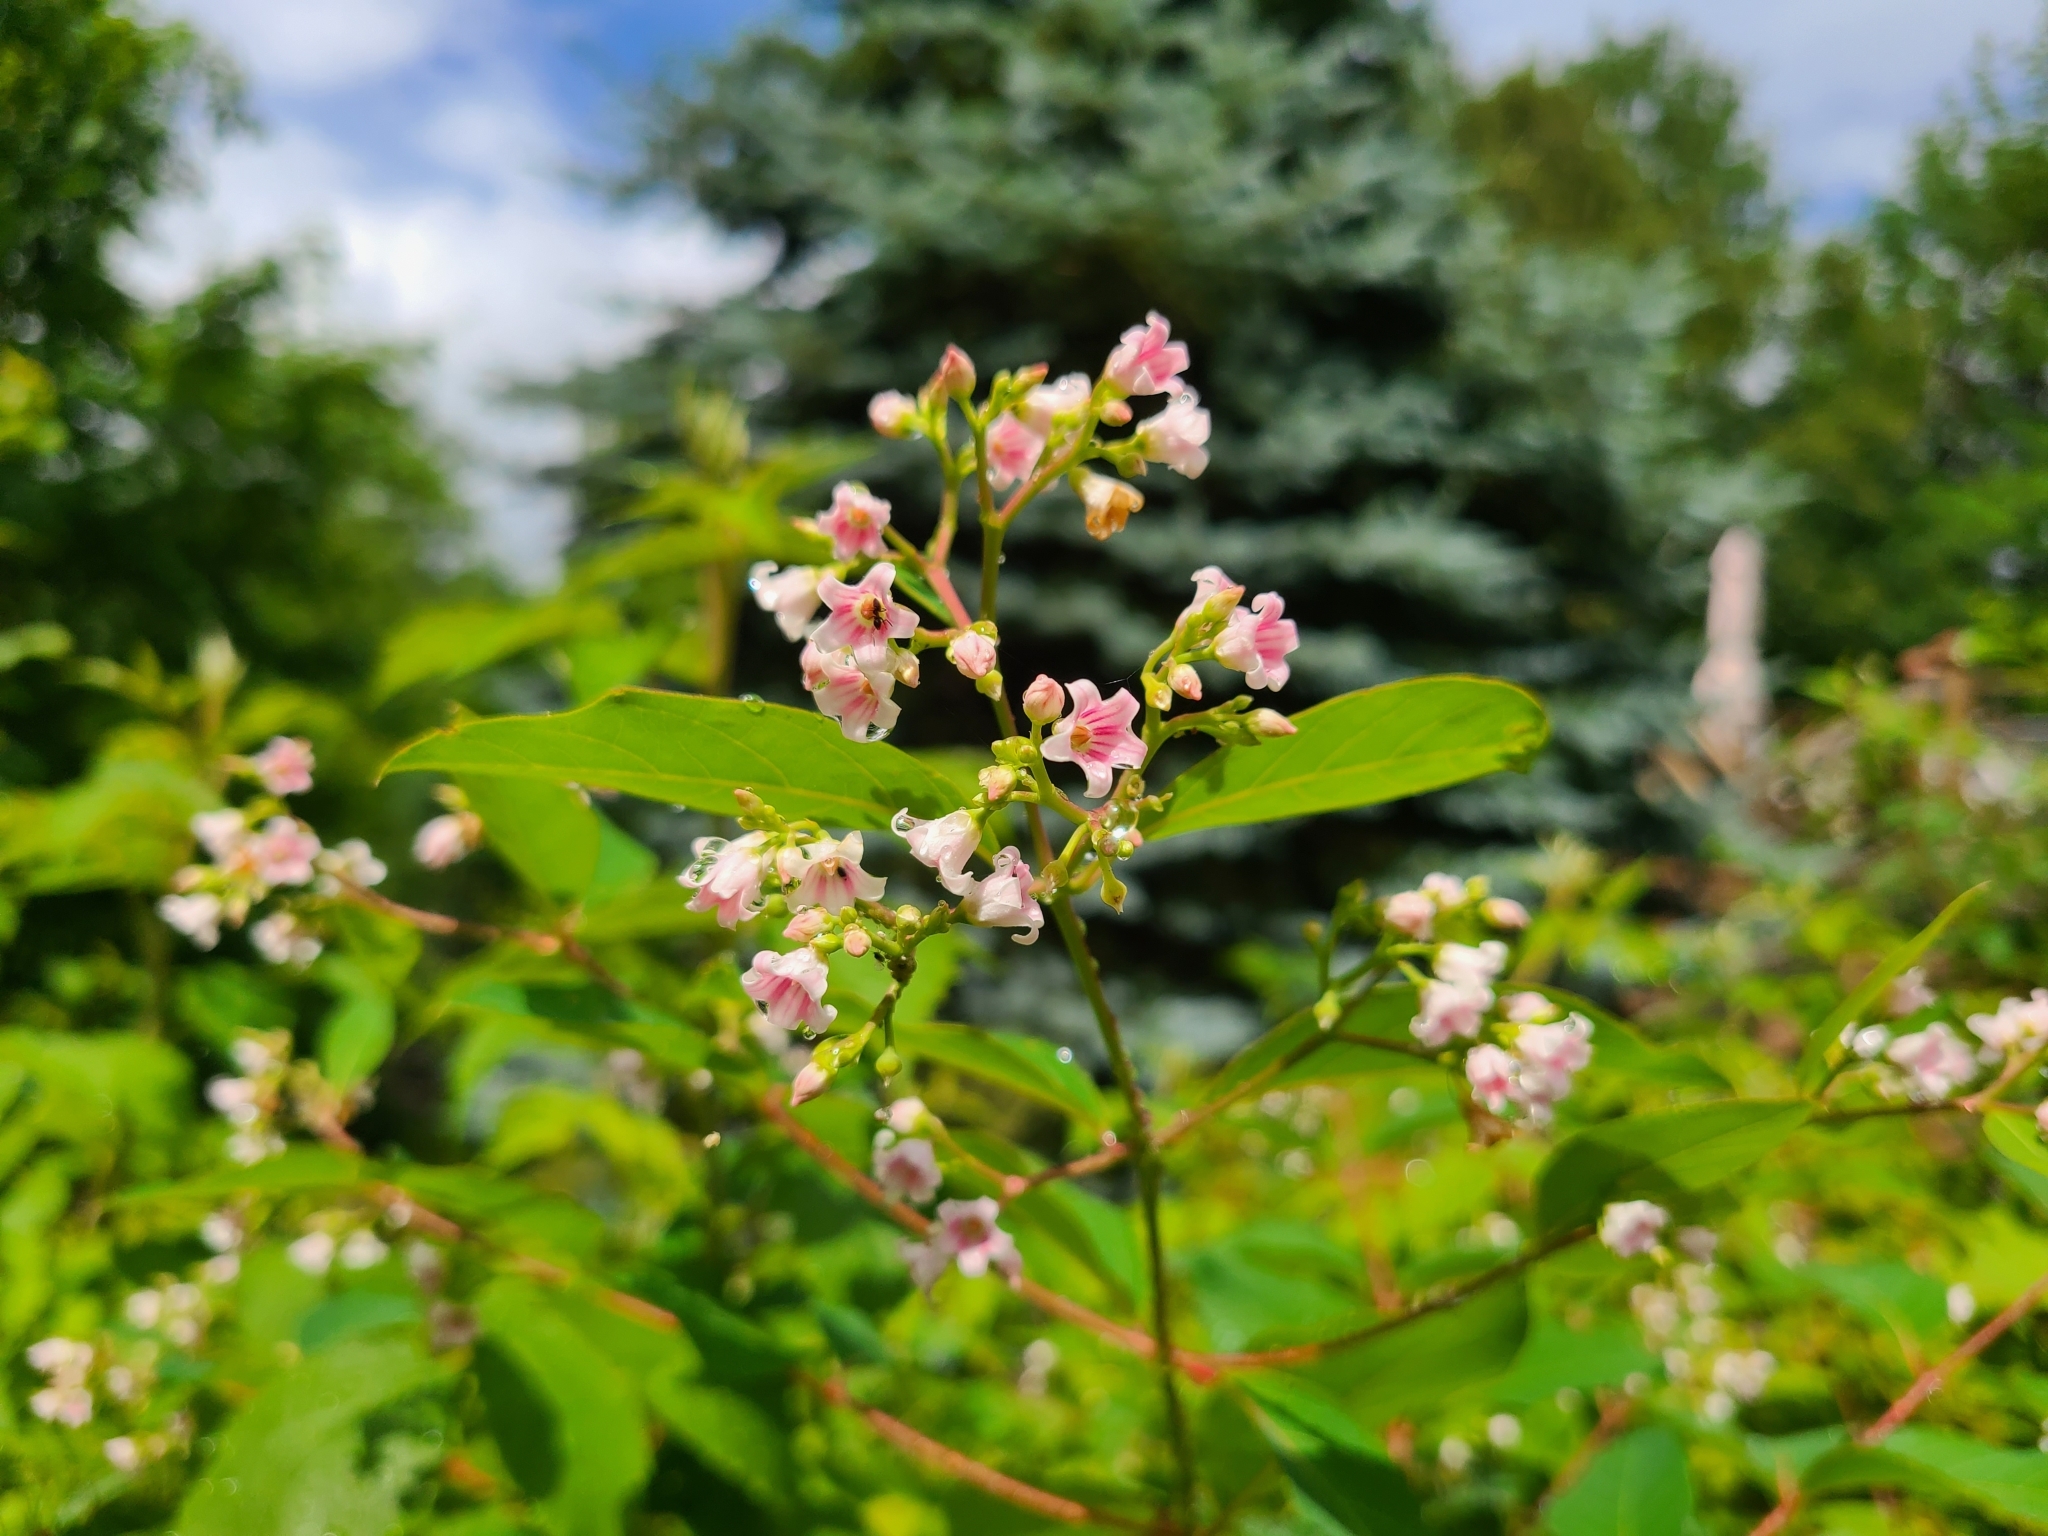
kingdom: Plantae
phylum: Tracheophyta
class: Magnoliopsida
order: Gentianales
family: Apocynaceae
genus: Apocynum
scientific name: Apocynum androsaemifolium
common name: Spreading dogbane
